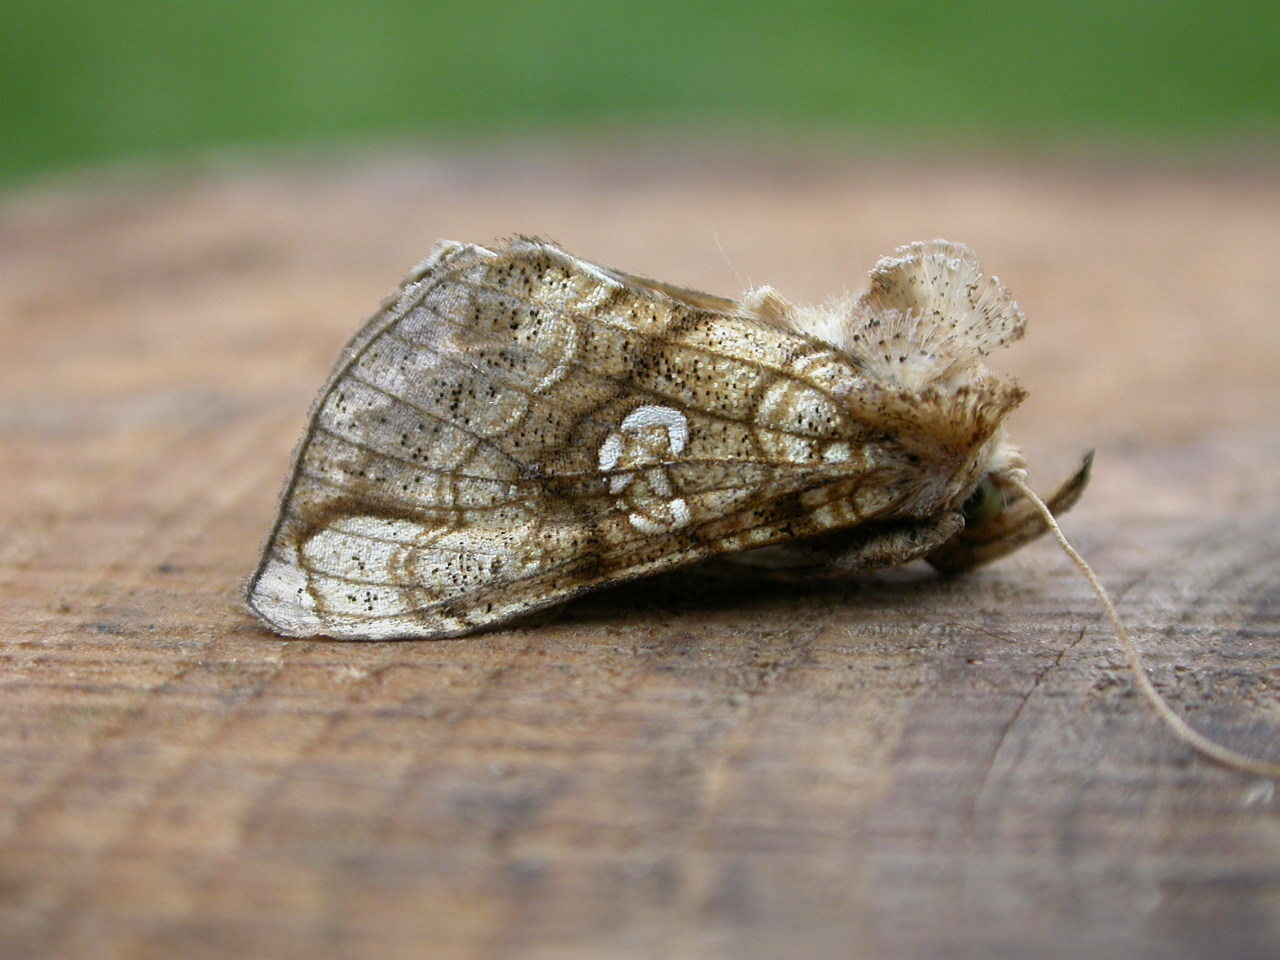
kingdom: Animalia
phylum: Arthropoda
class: Insecta
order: Lepidoptera
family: Noctuidae
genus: Polychrysia
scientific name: Polychrysia moneta
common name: Golden plusia
